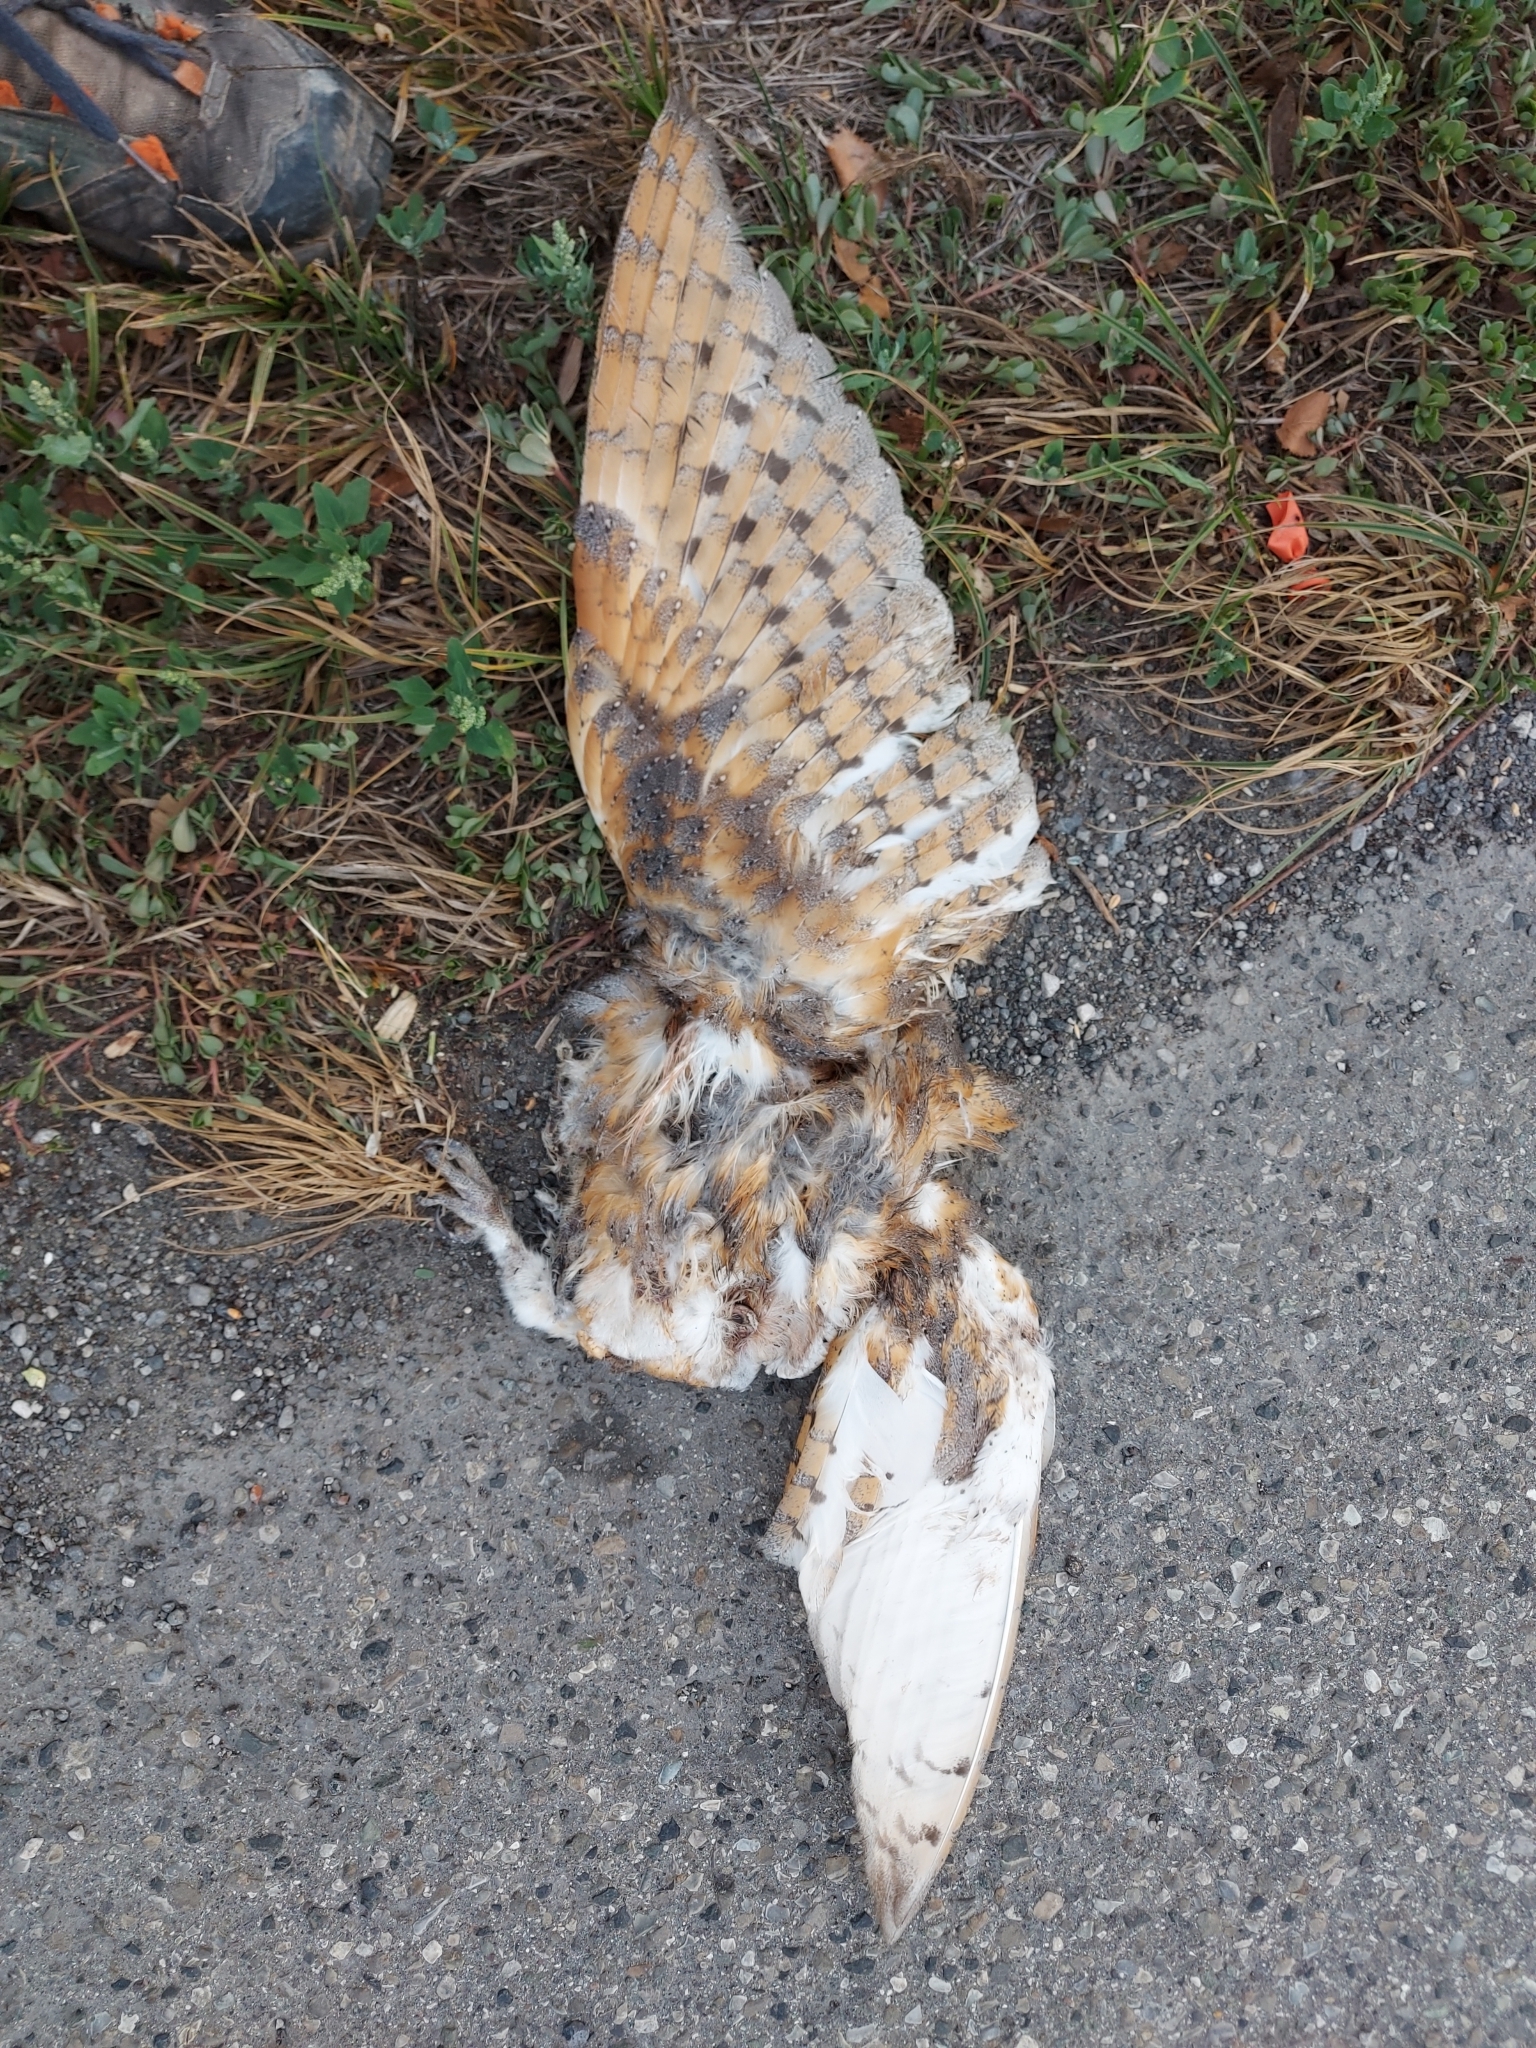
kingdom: Animalia
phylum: Chordata
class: Aves
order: Strigiformes
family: Tytonidae
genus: Tyto
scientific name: Tyto alba
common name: Barn owl
